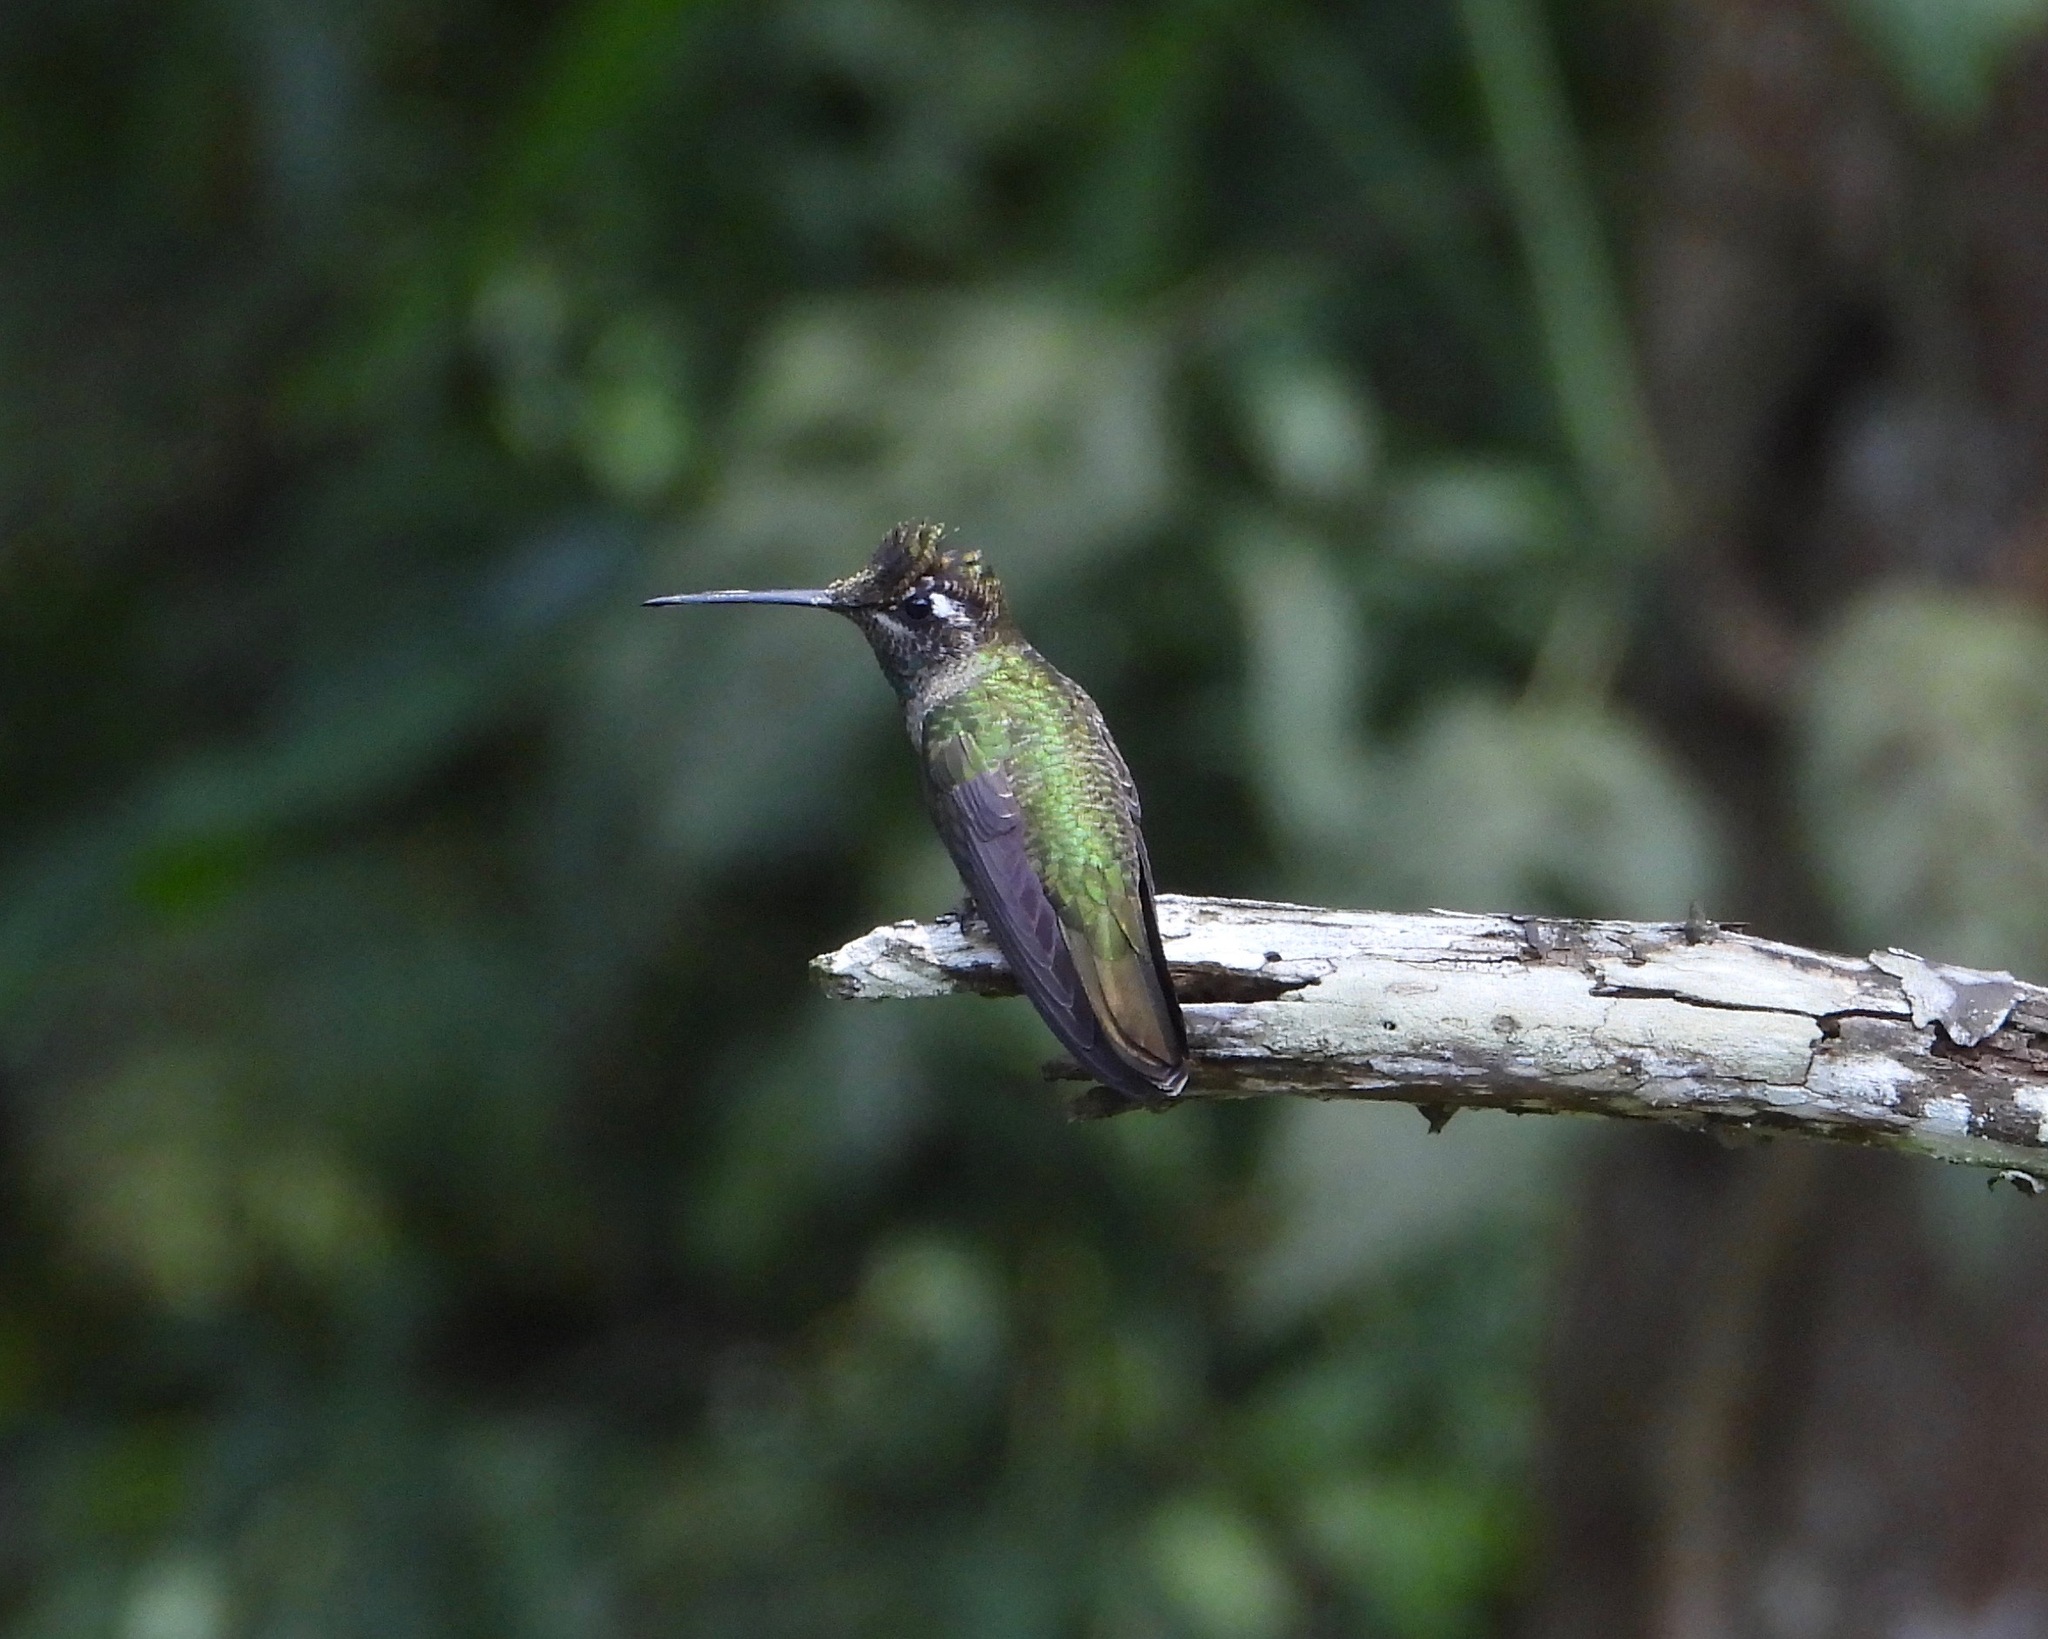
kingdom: Animalia
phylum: Chordata
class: Aves
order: Apodiformes
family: Trochilidae
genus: Eugenes
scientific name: Eugenes fulgens
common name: Magnificent hummingbird
